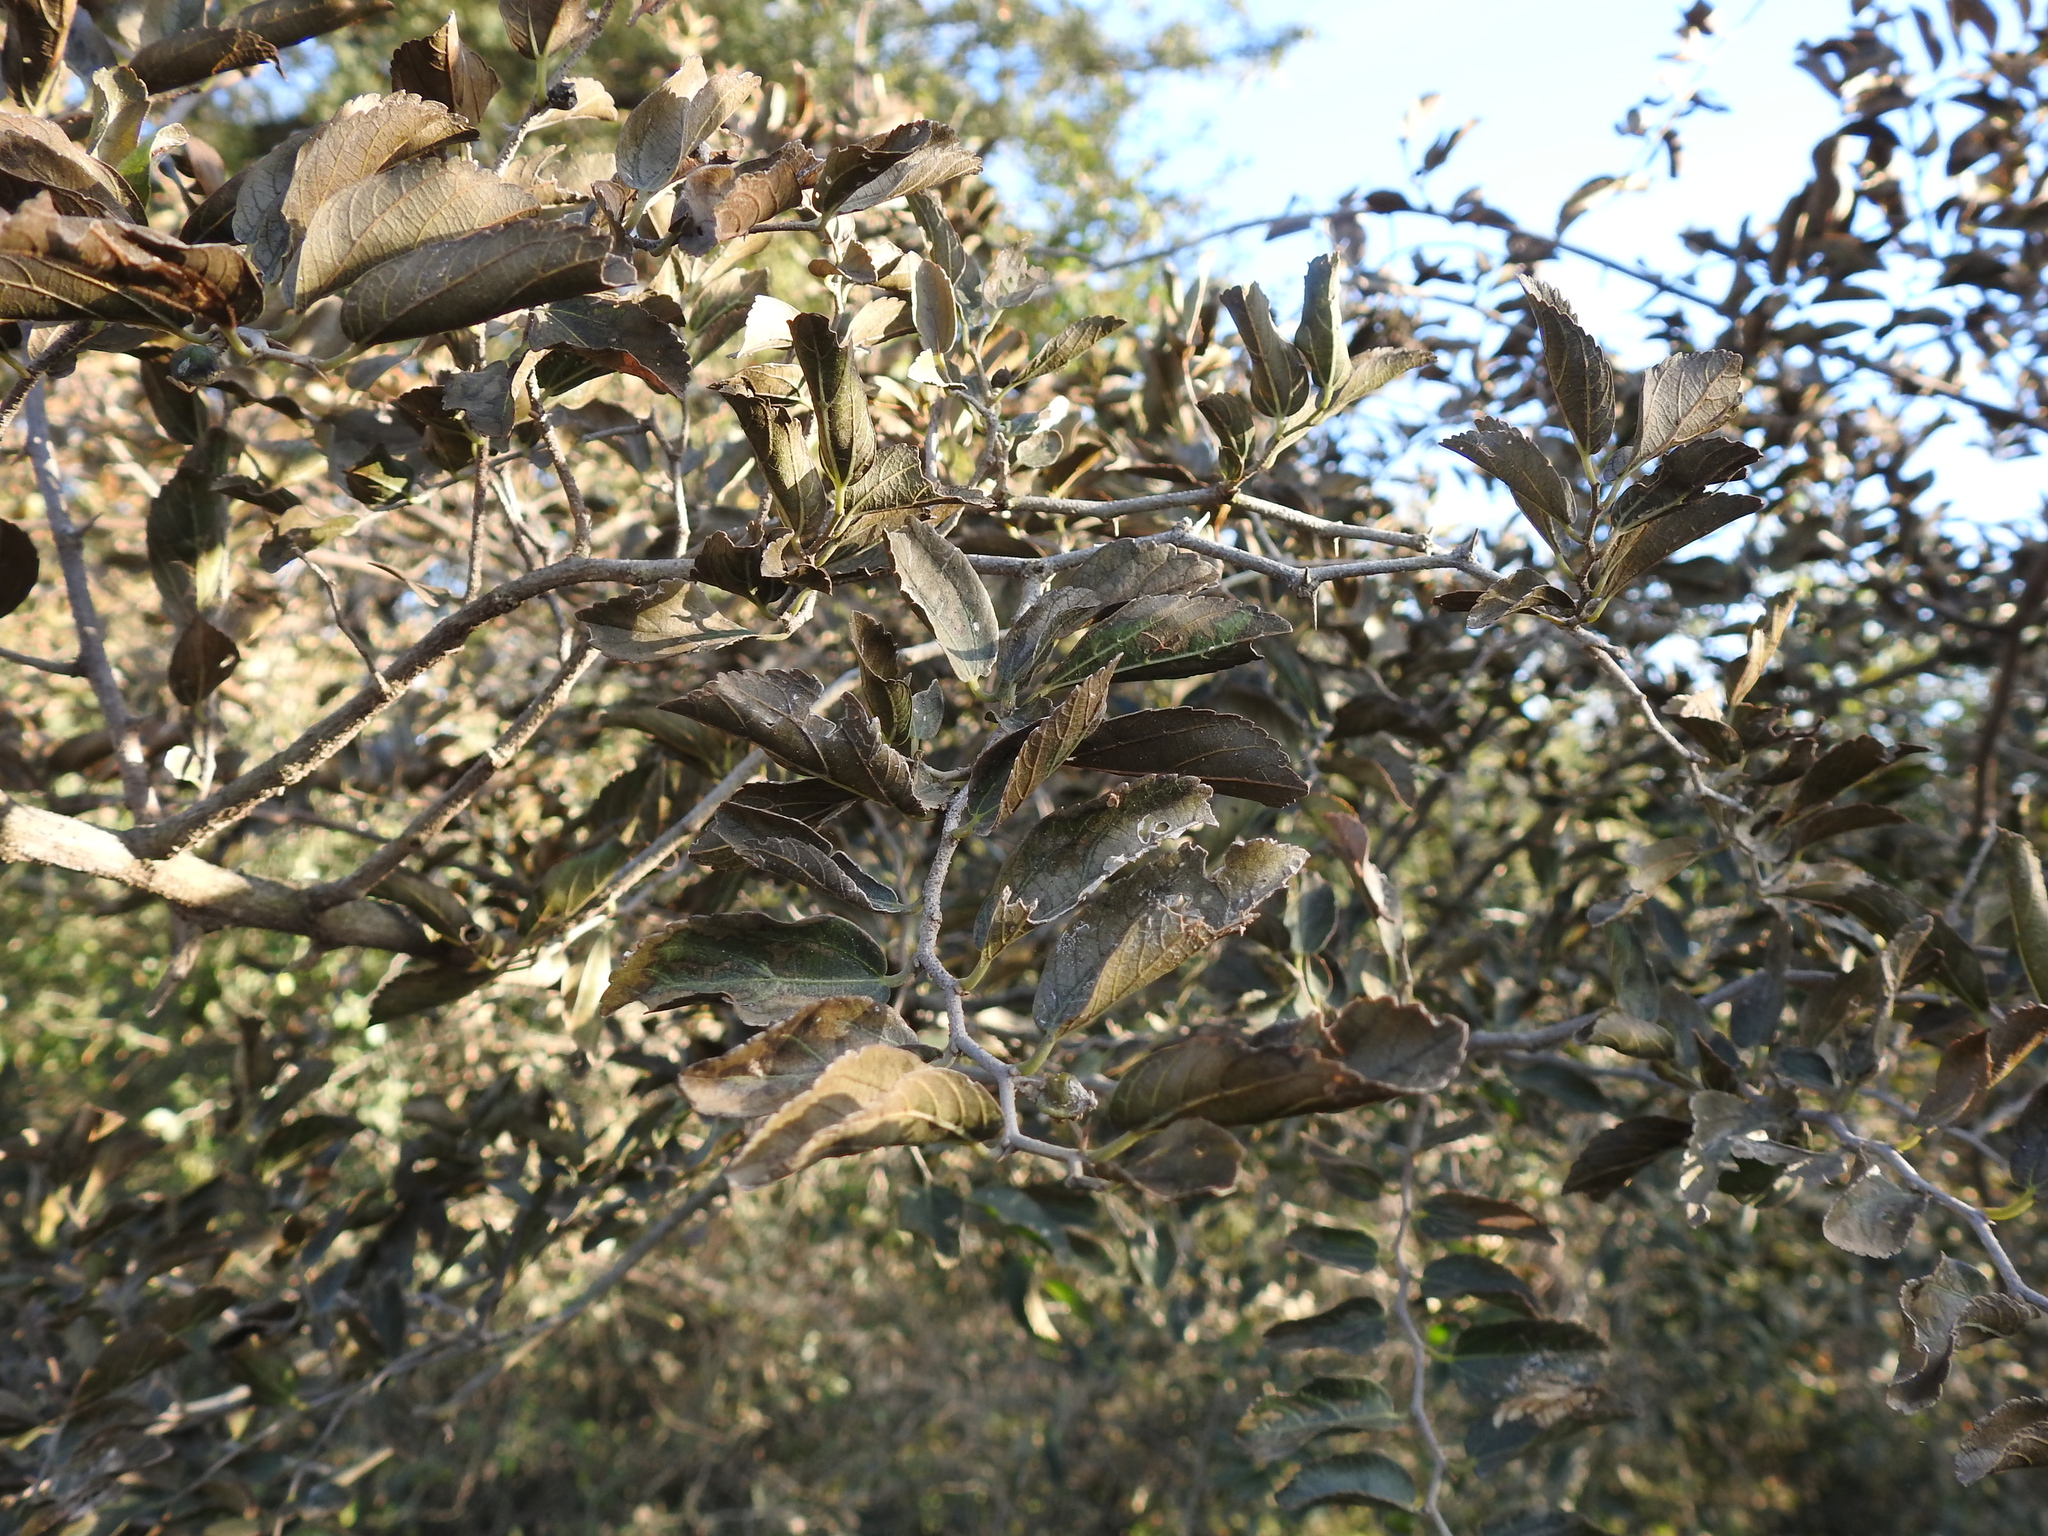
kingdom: Plantae
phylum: Tracheophyta
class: Magnoliopsida
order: Rosales
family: Cannabaceae
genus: Celtis
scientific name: Celtis iguanaea
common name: Iguana hackberry
